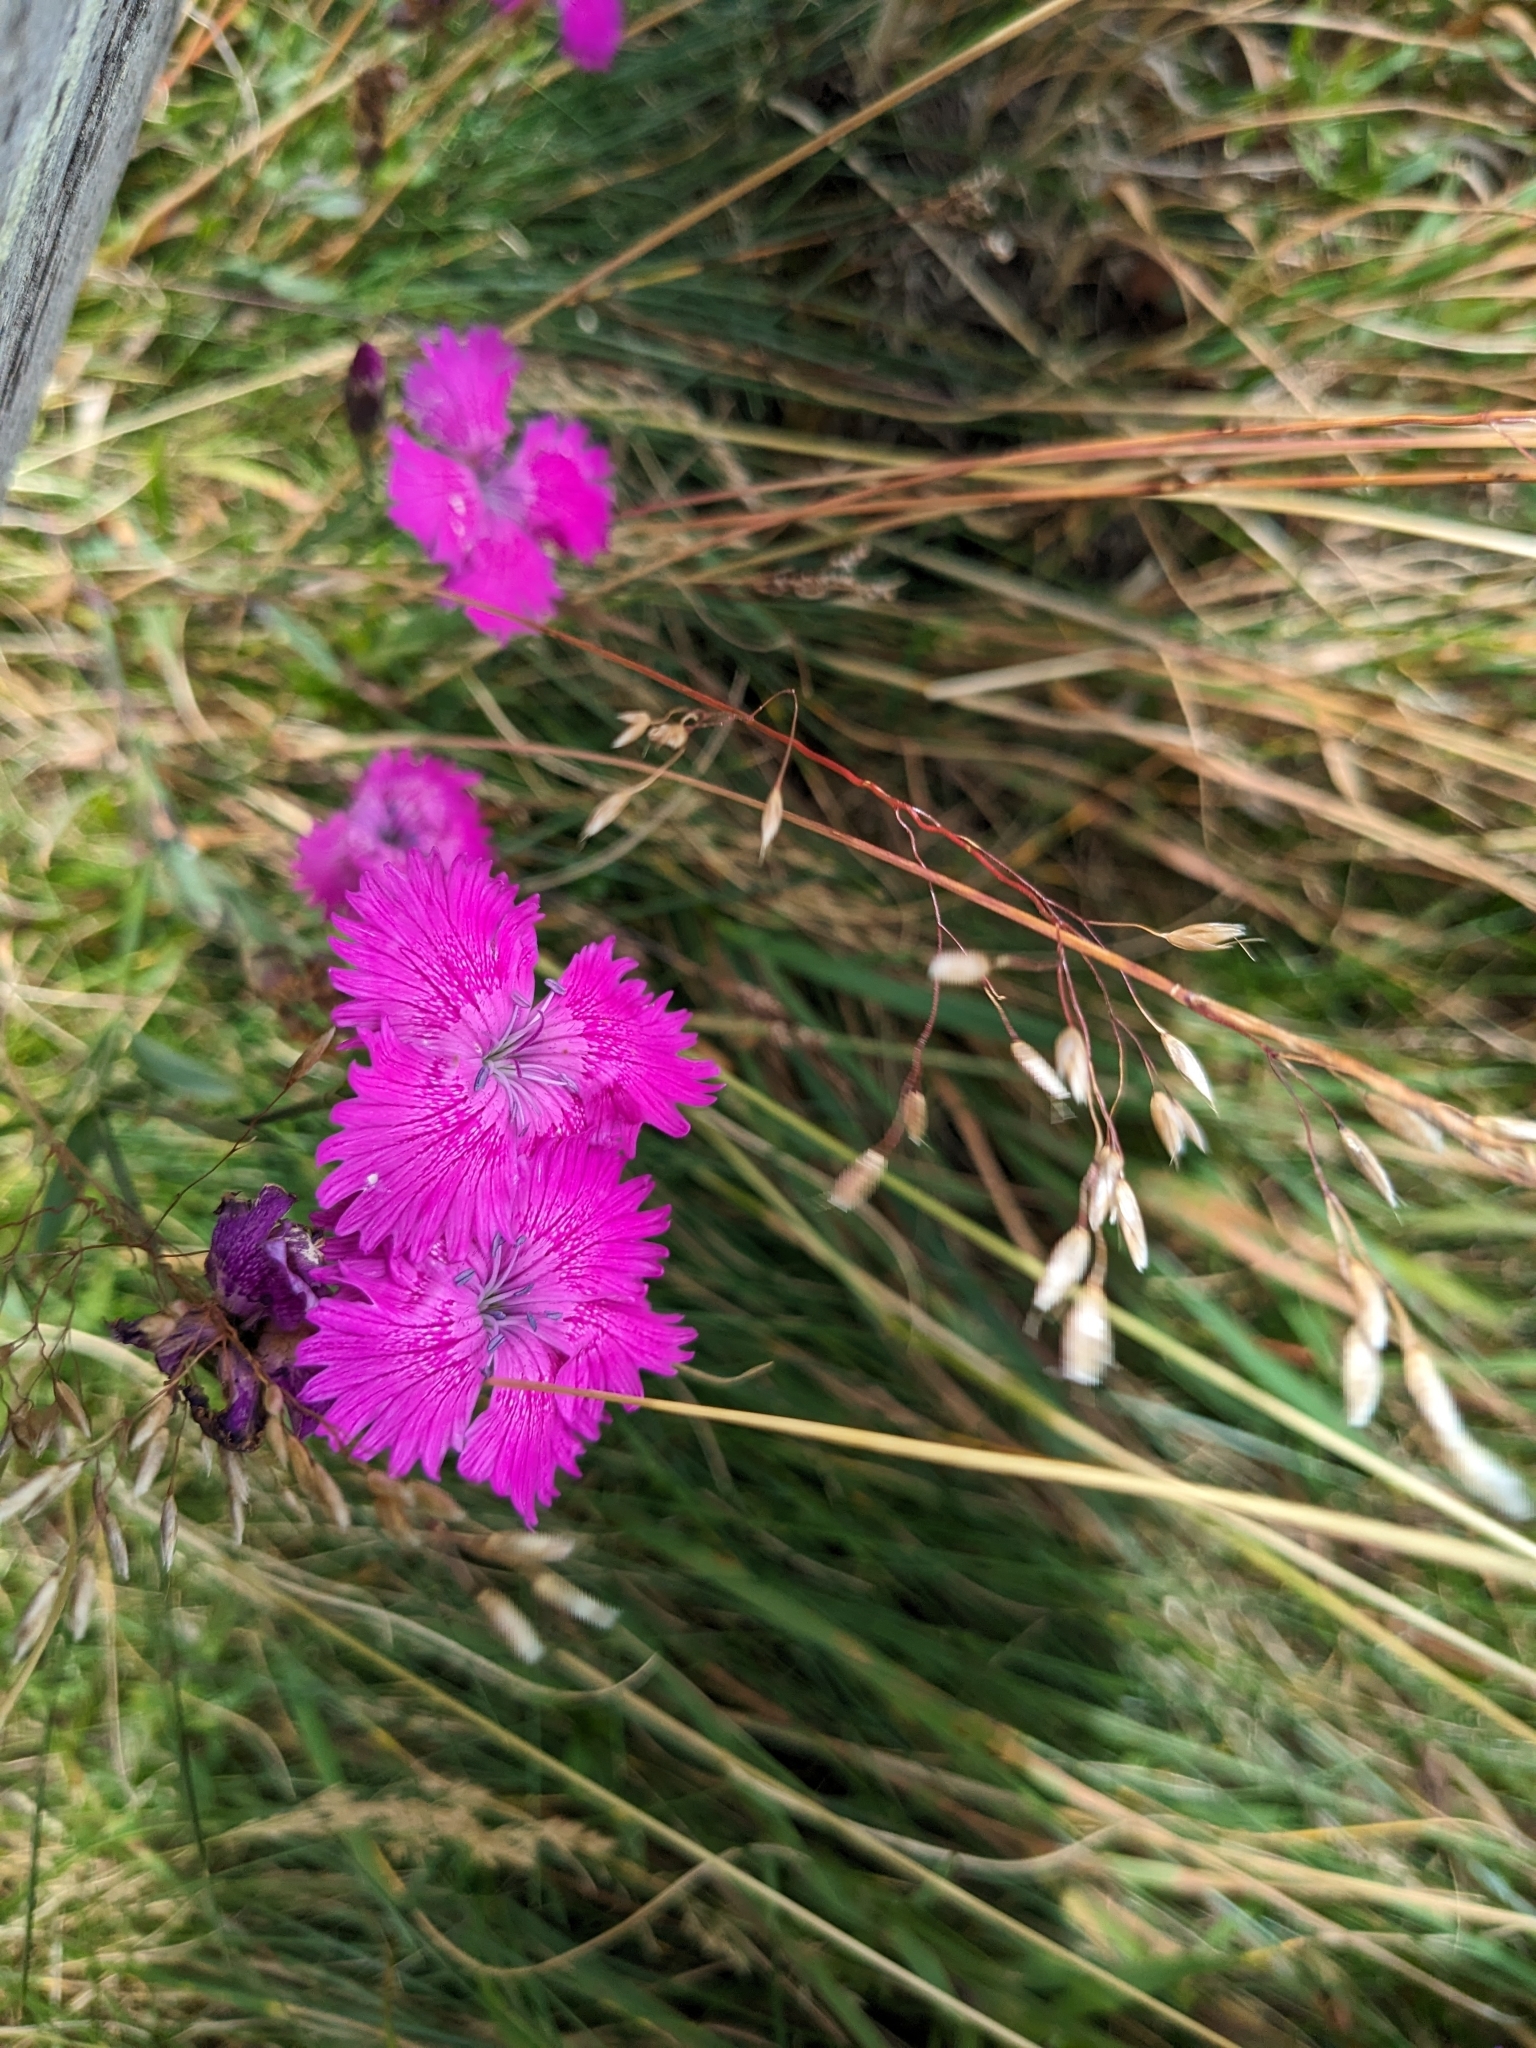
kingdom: Plantae
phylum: Tracheophyta
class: Magnoliopsida
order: Caryophyllales
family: Caryophyllaceae
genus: Dianthus
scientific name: Dianthus seguieri
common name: Ragged pink
